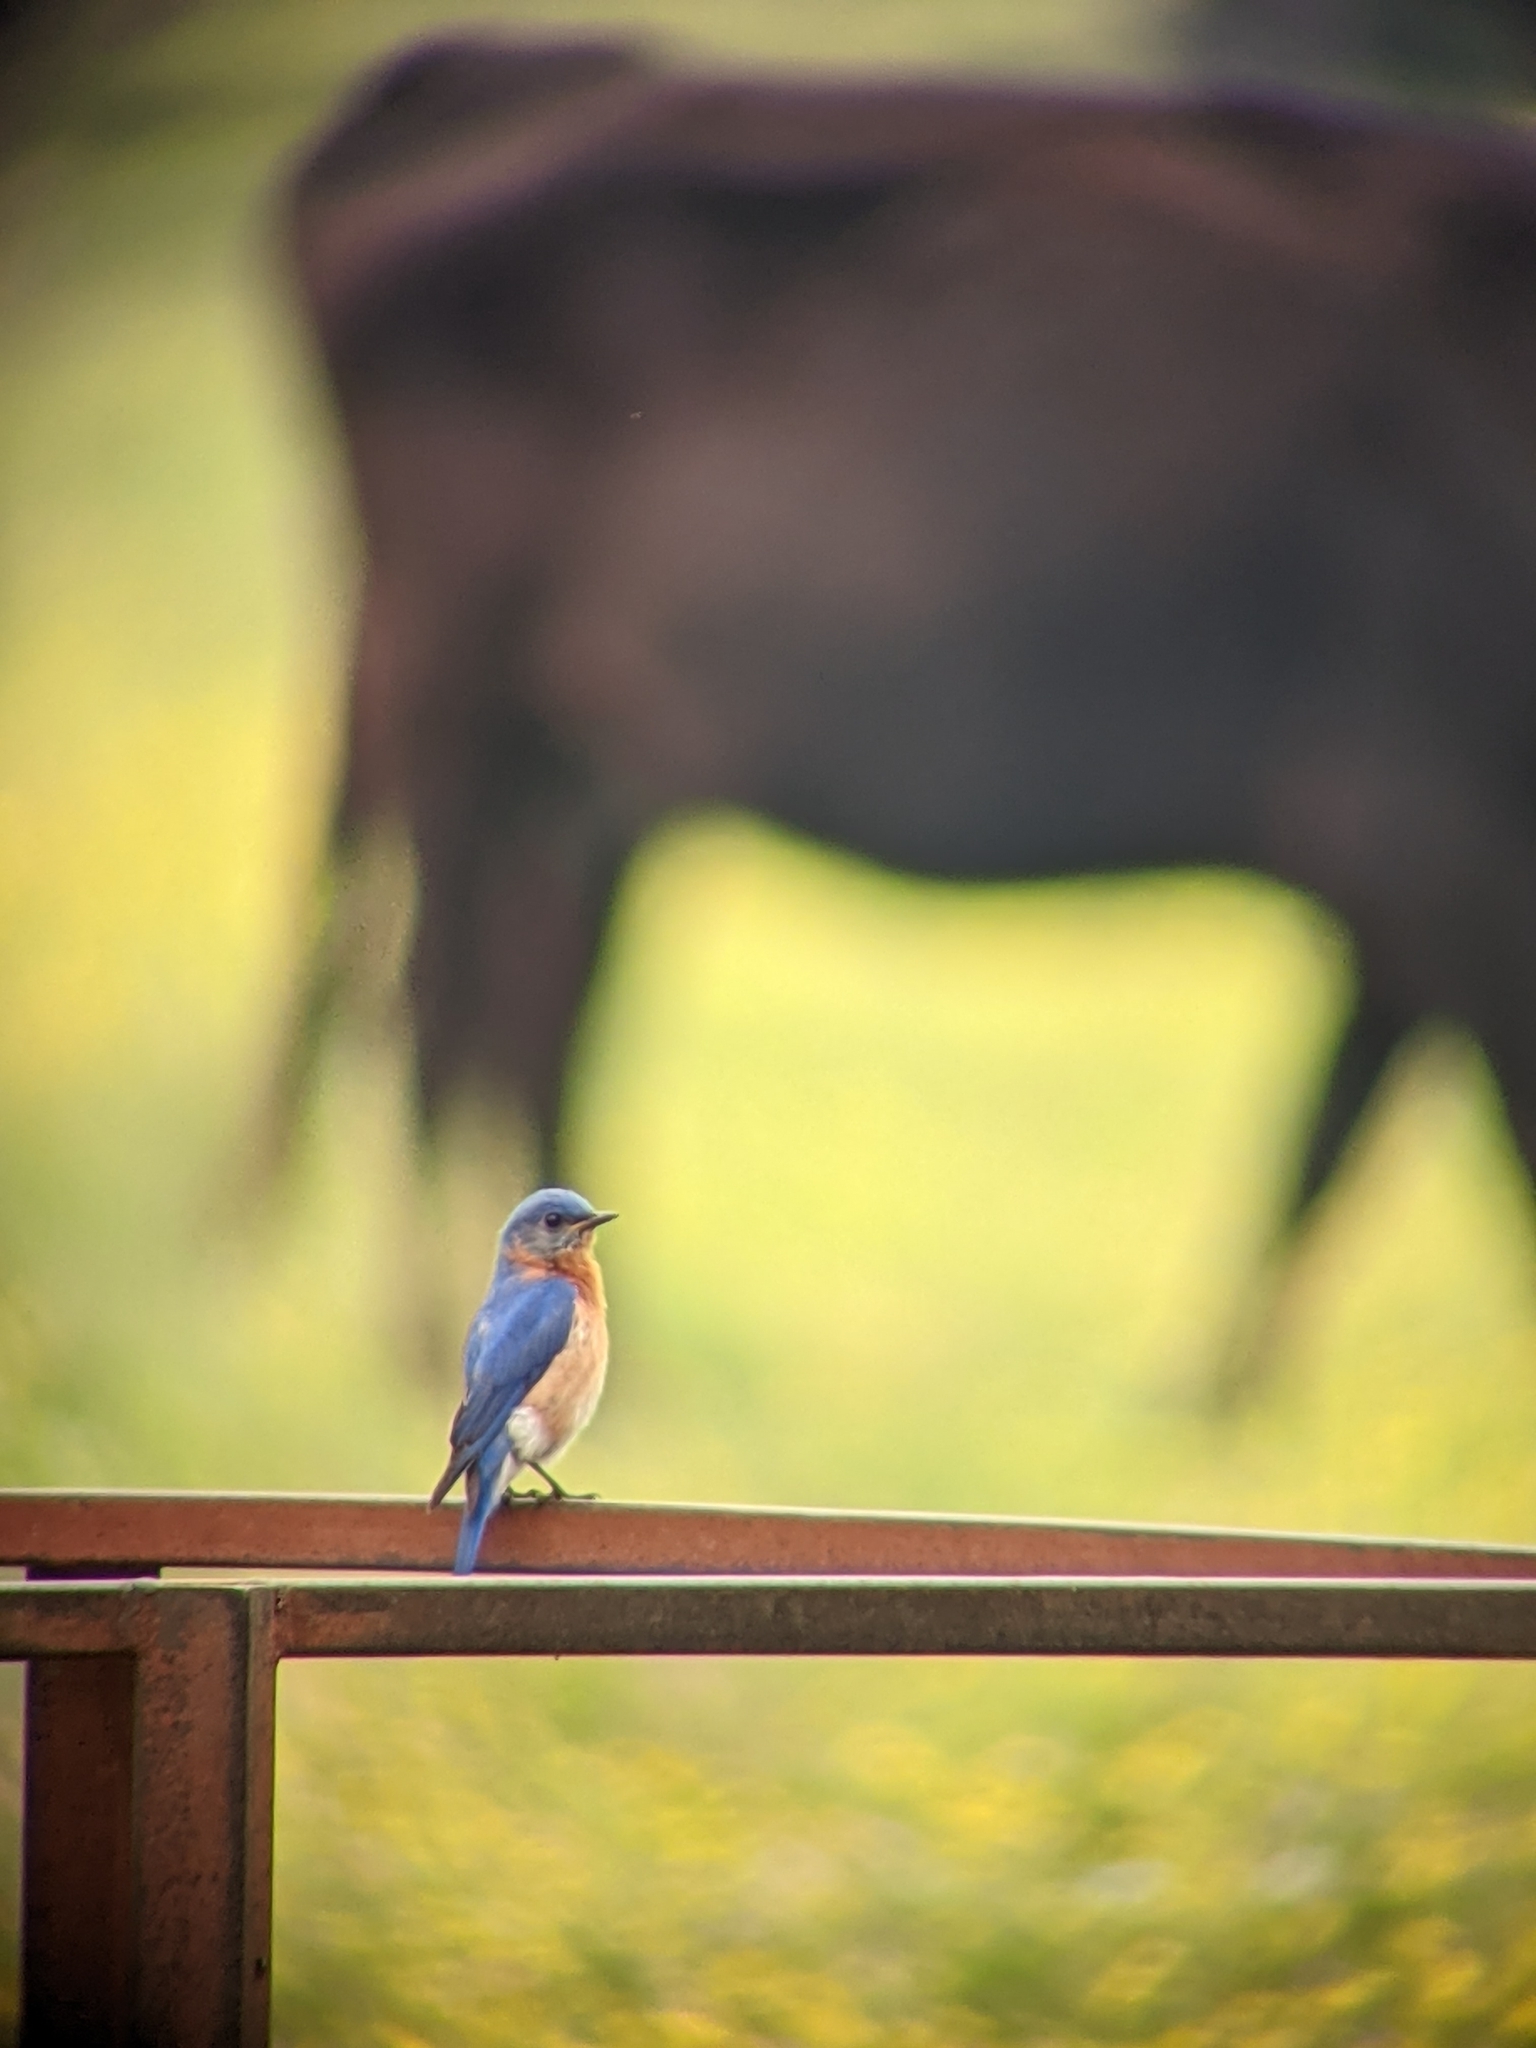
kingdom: Animalia
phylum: Chordata
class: Aves
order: Passeriformes
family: Turdidae
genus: Sialia
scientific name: Sialia sialis
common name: Eastern bluebird
